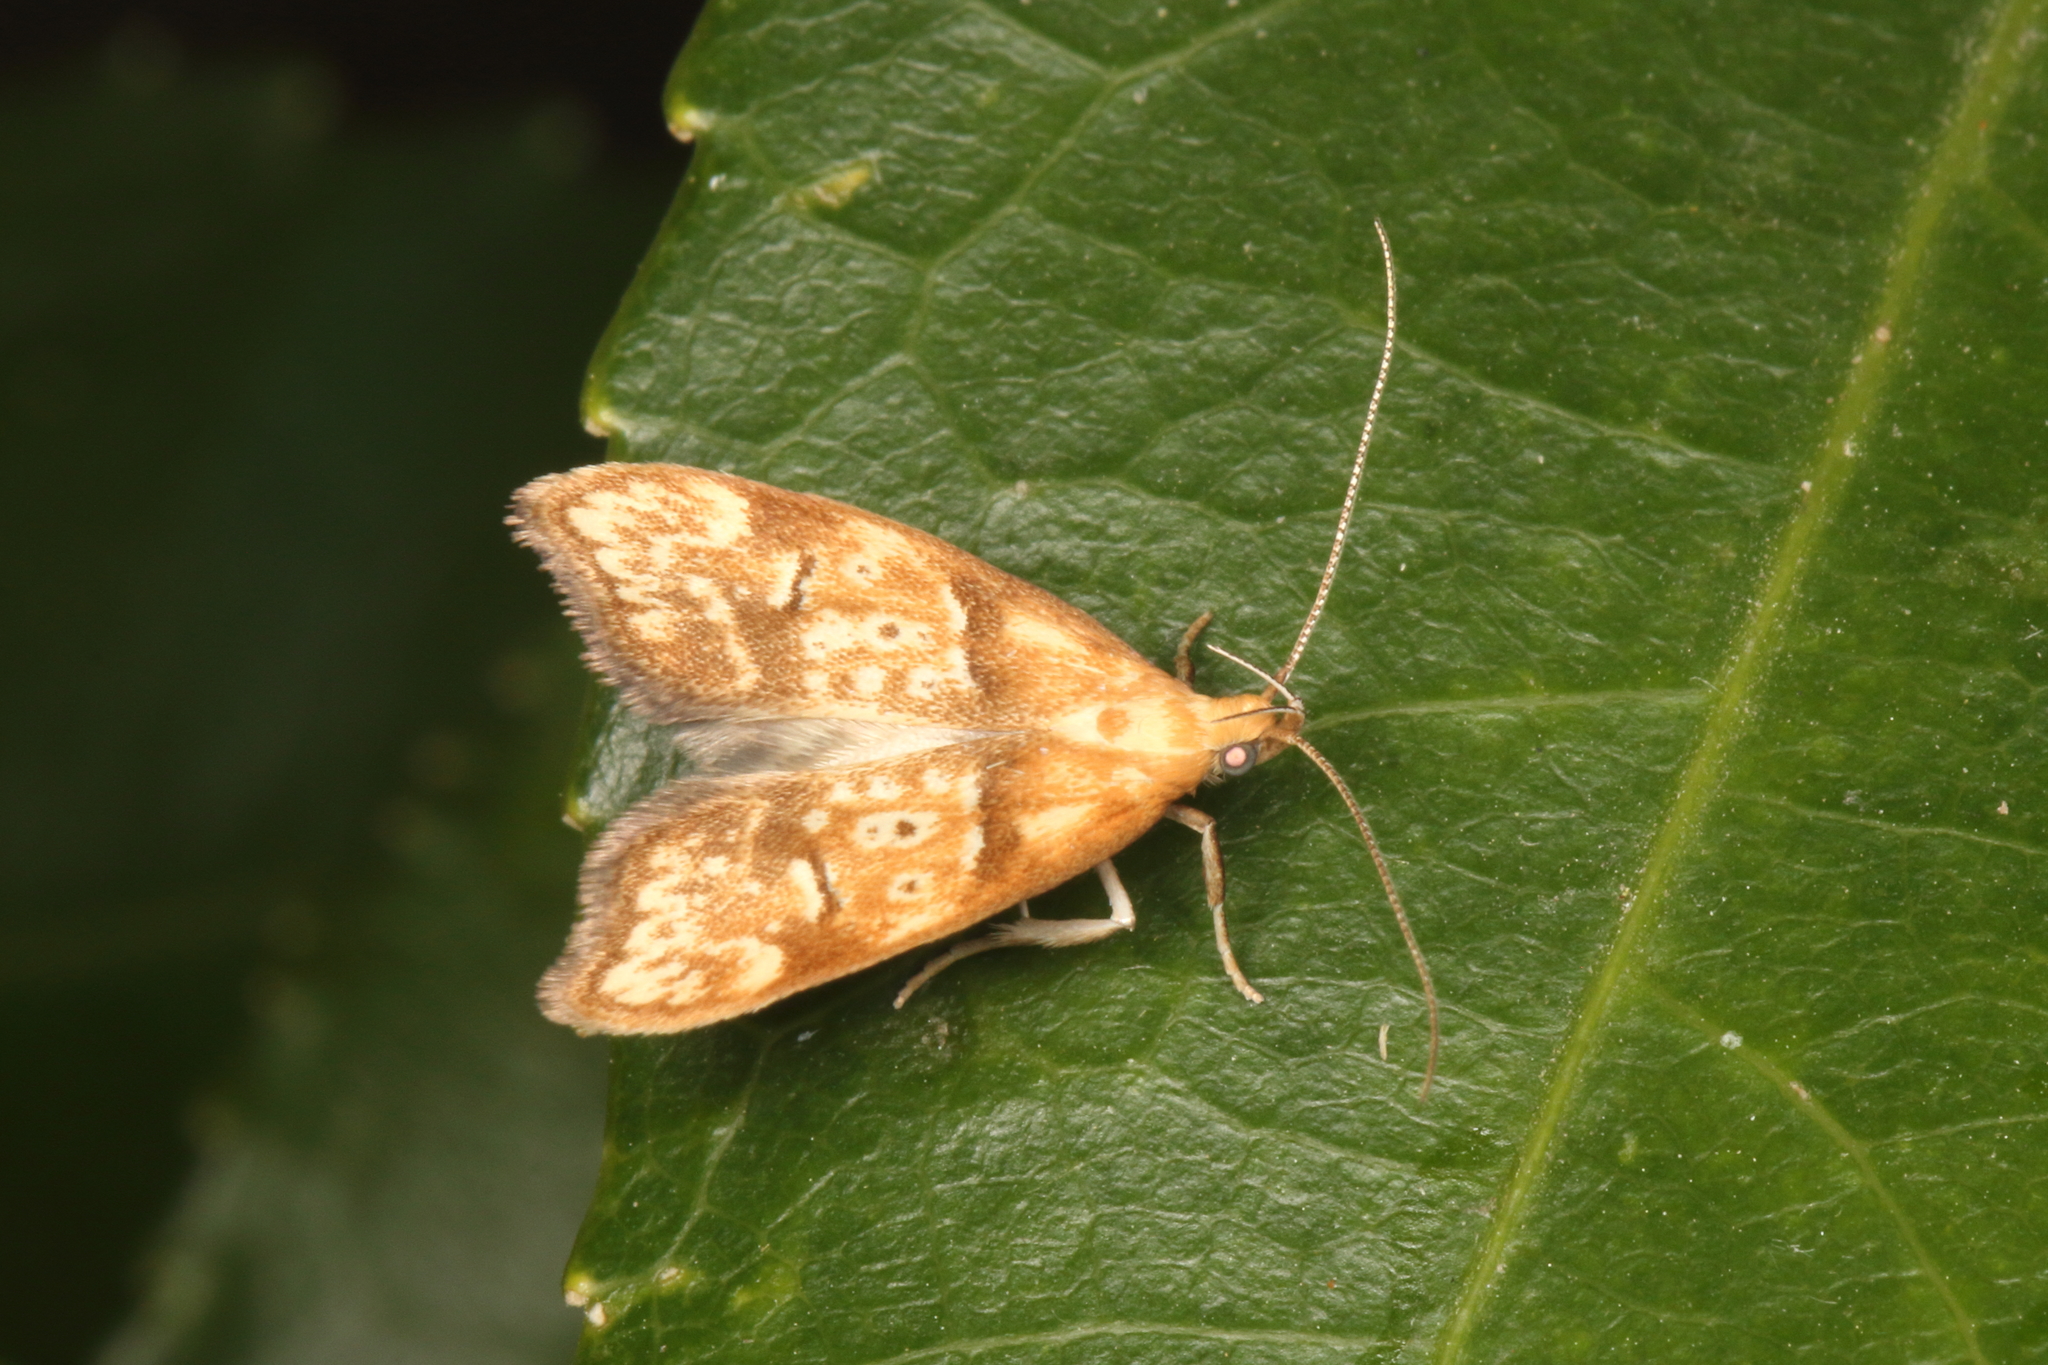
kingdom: Animalia
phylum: Arthropoda
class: Insecta
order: Lepidoptera
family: Oecophoridae
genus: Gymnobathra
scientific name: Gymnobathra hamatella
